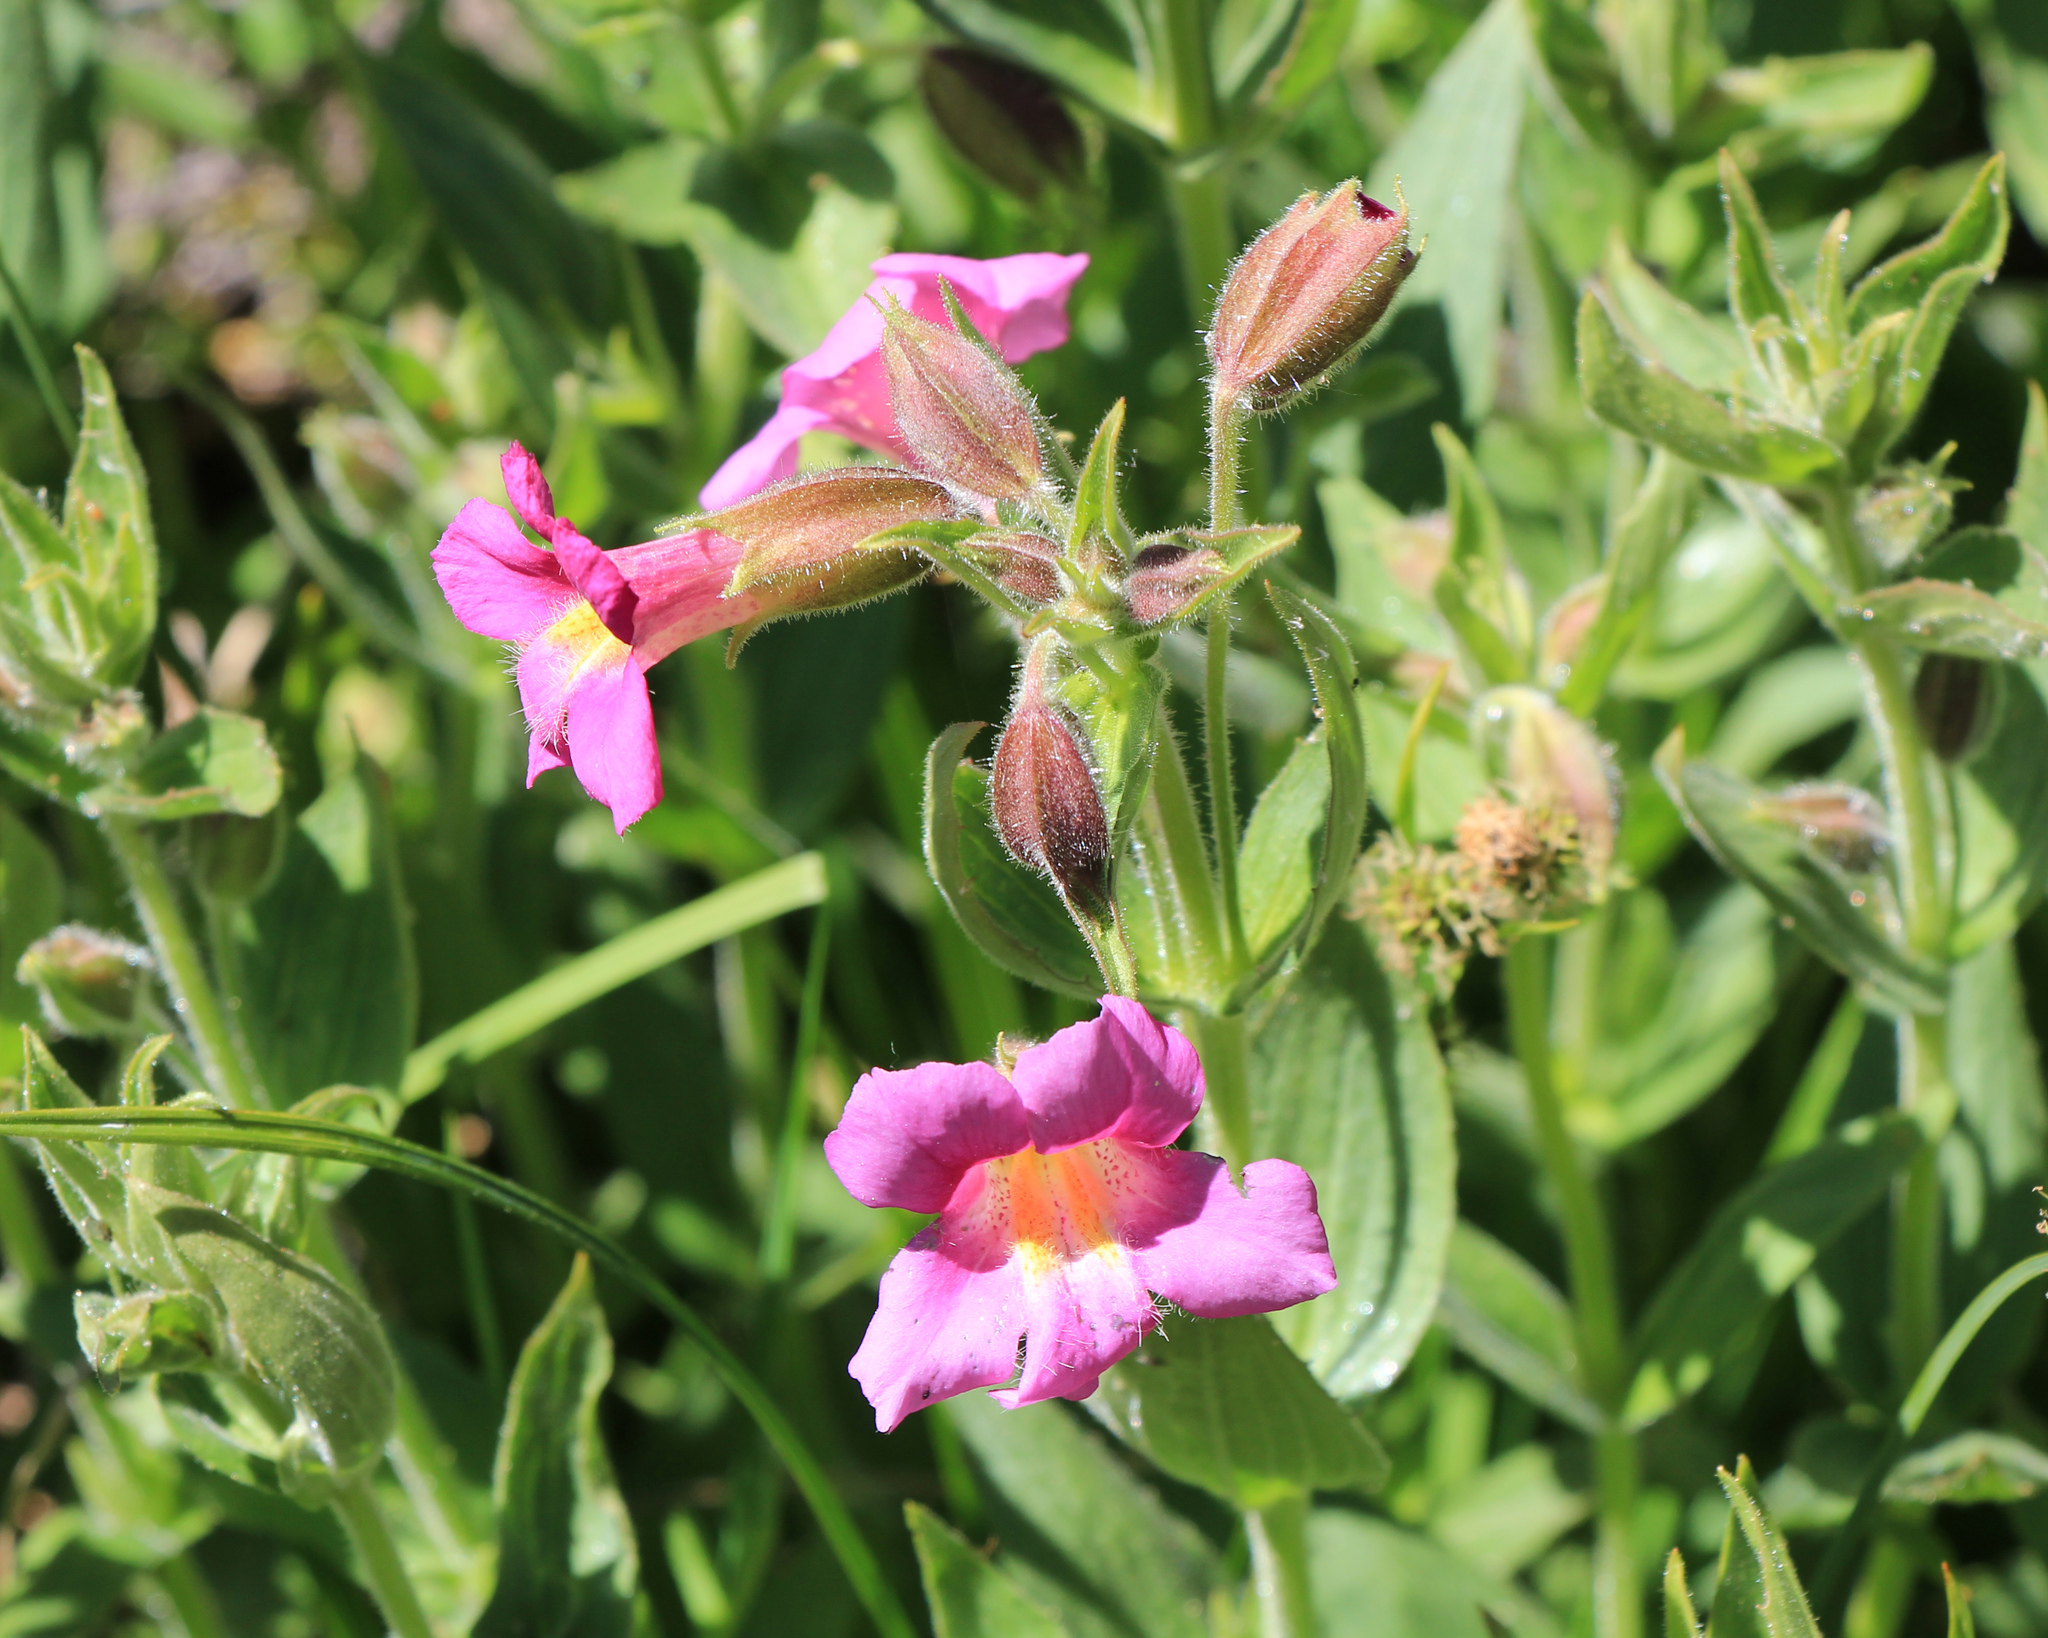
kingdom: Plantae
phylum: Tracheophyta
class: Magnoliopsida
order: Lamiales
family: Phrymaceae
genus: Erythranthe
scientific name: Erythranthe lewisii
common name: Lewis's monkey-flower
